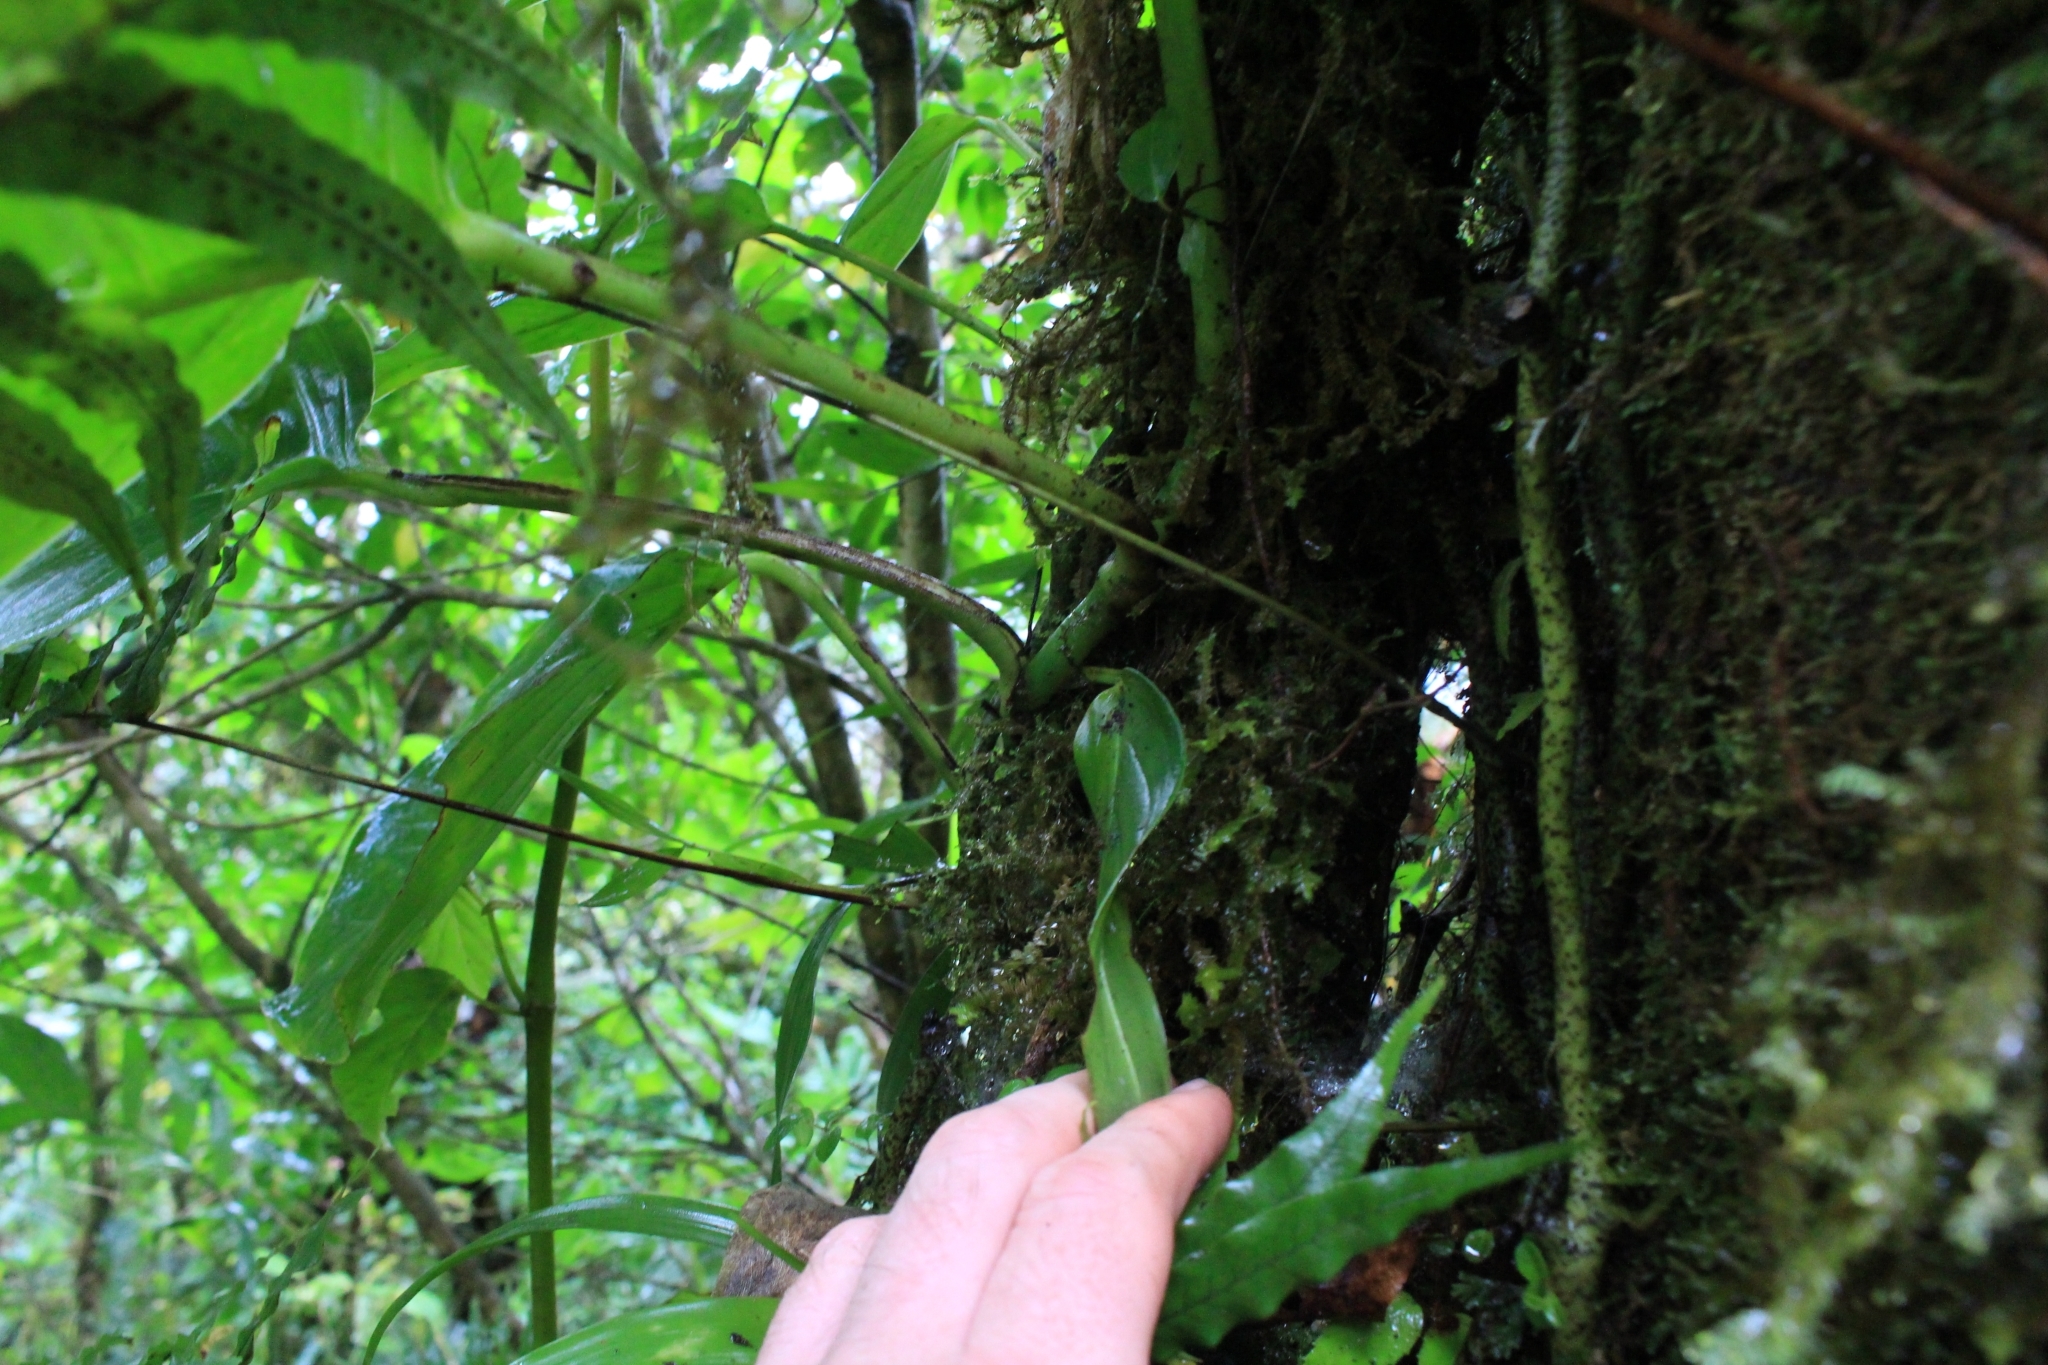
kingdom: Plantae
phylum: Tracheophyta
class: Liliopsida
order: Alismatales
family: Araceae
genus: Monstera
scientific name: Monstera oreophila
